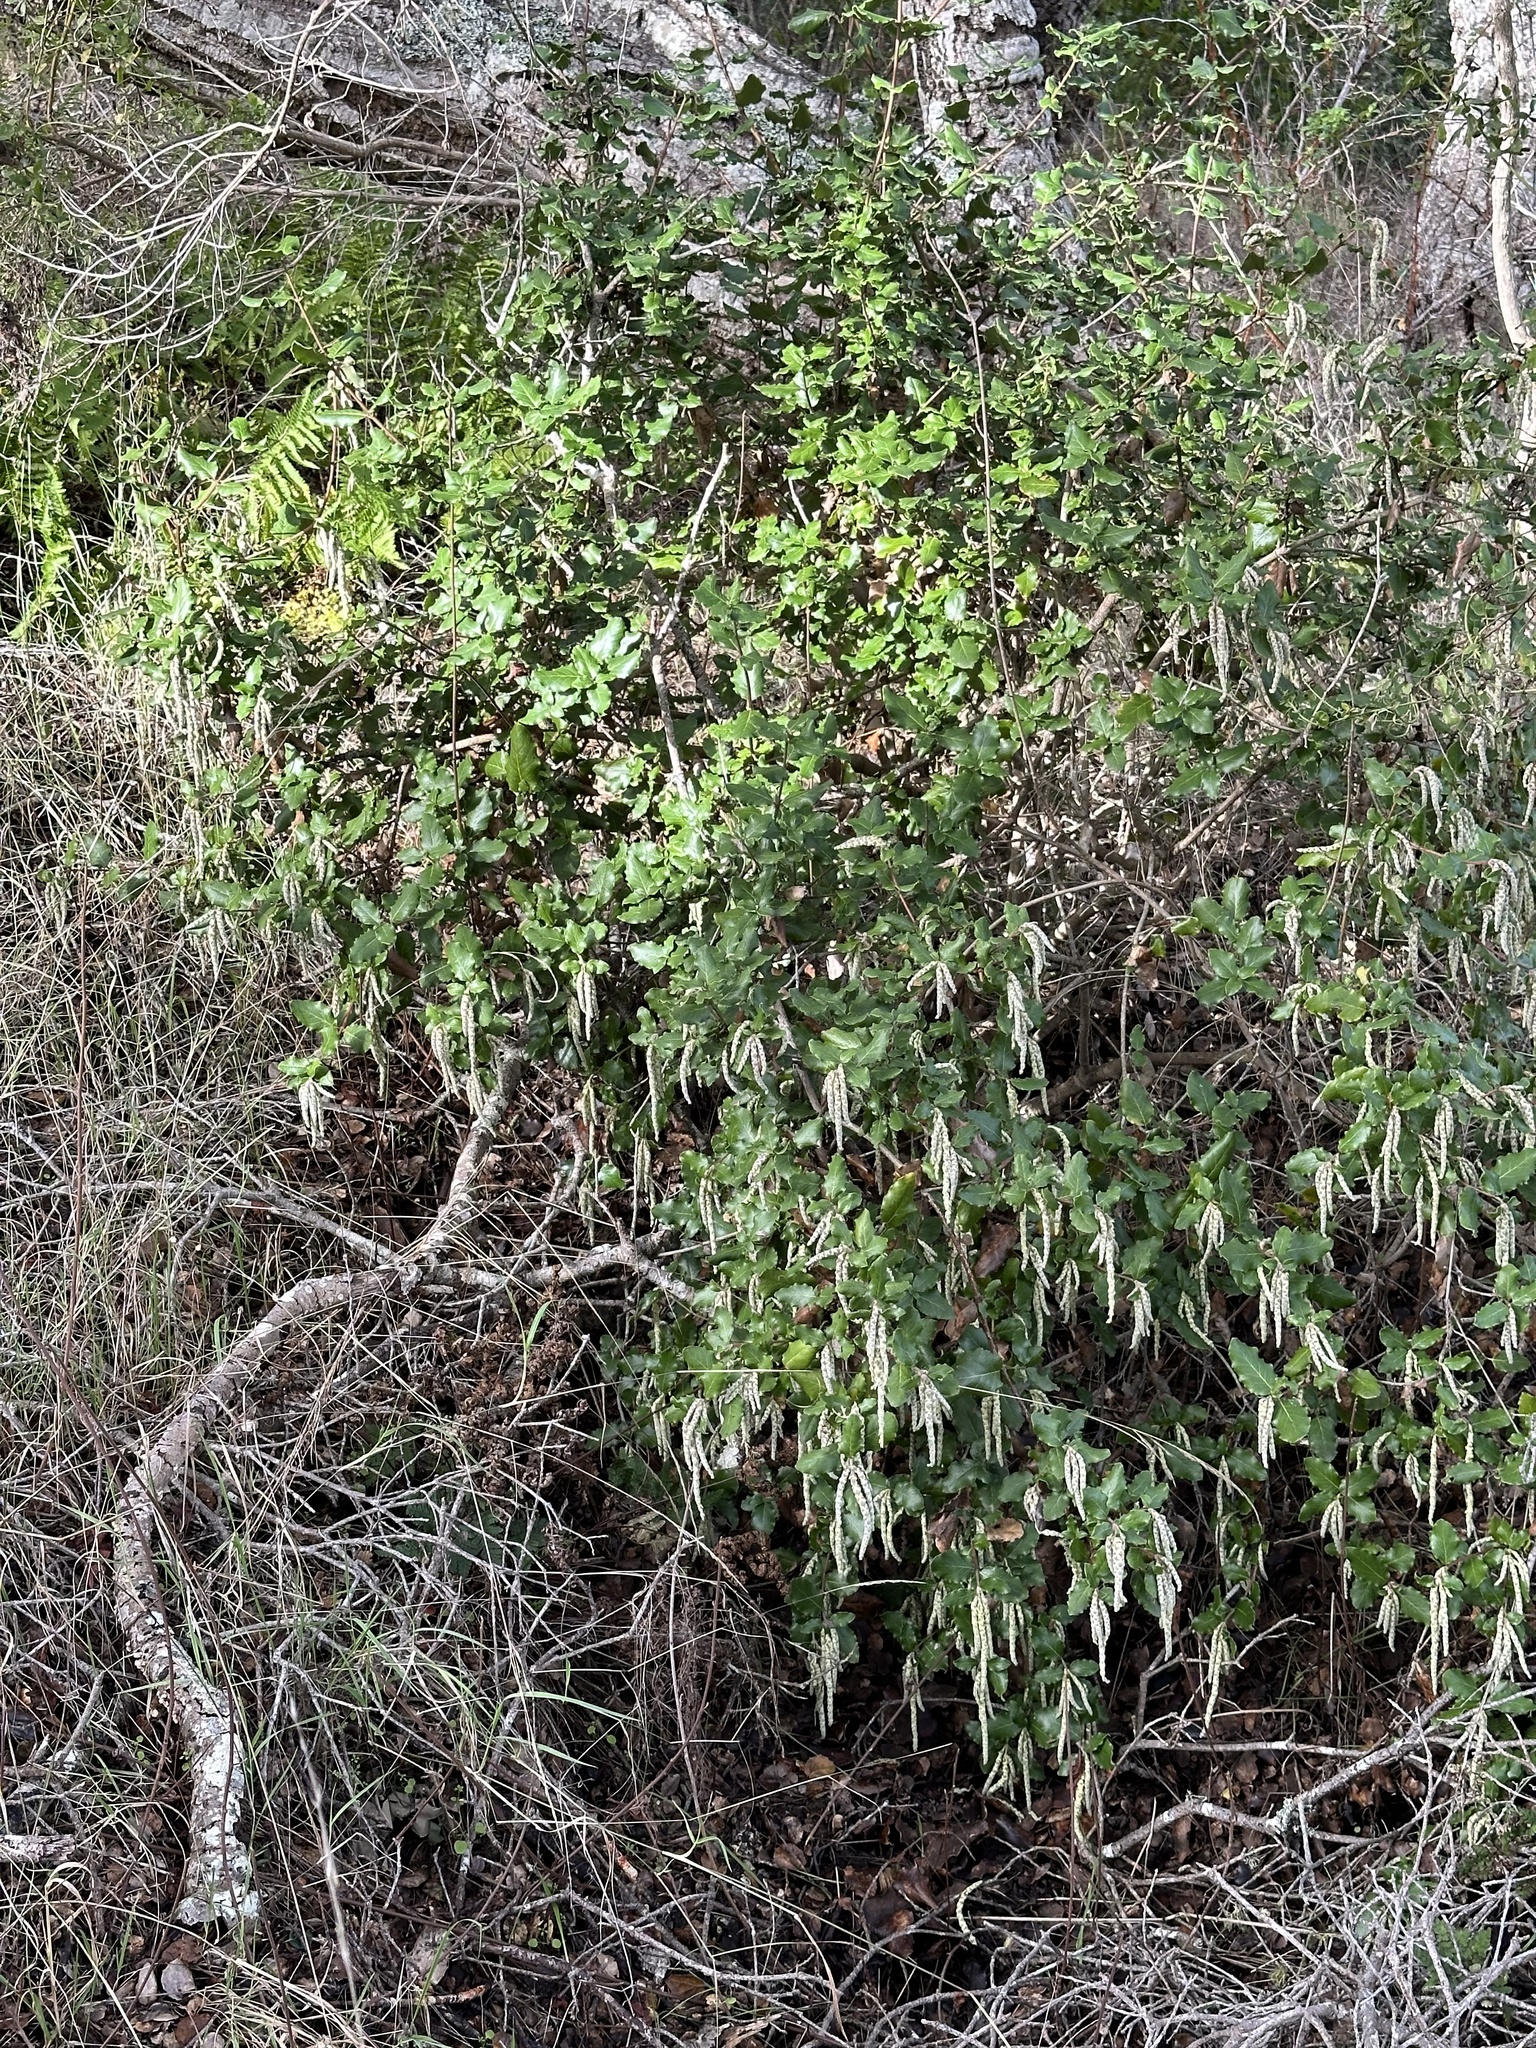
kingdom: Plantae
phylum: Tracheophyta
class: Magnoliopsida
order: Garryales
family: Garryaceae
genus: Garrya
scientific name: Garrya elliptica
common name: Silk-tassel
